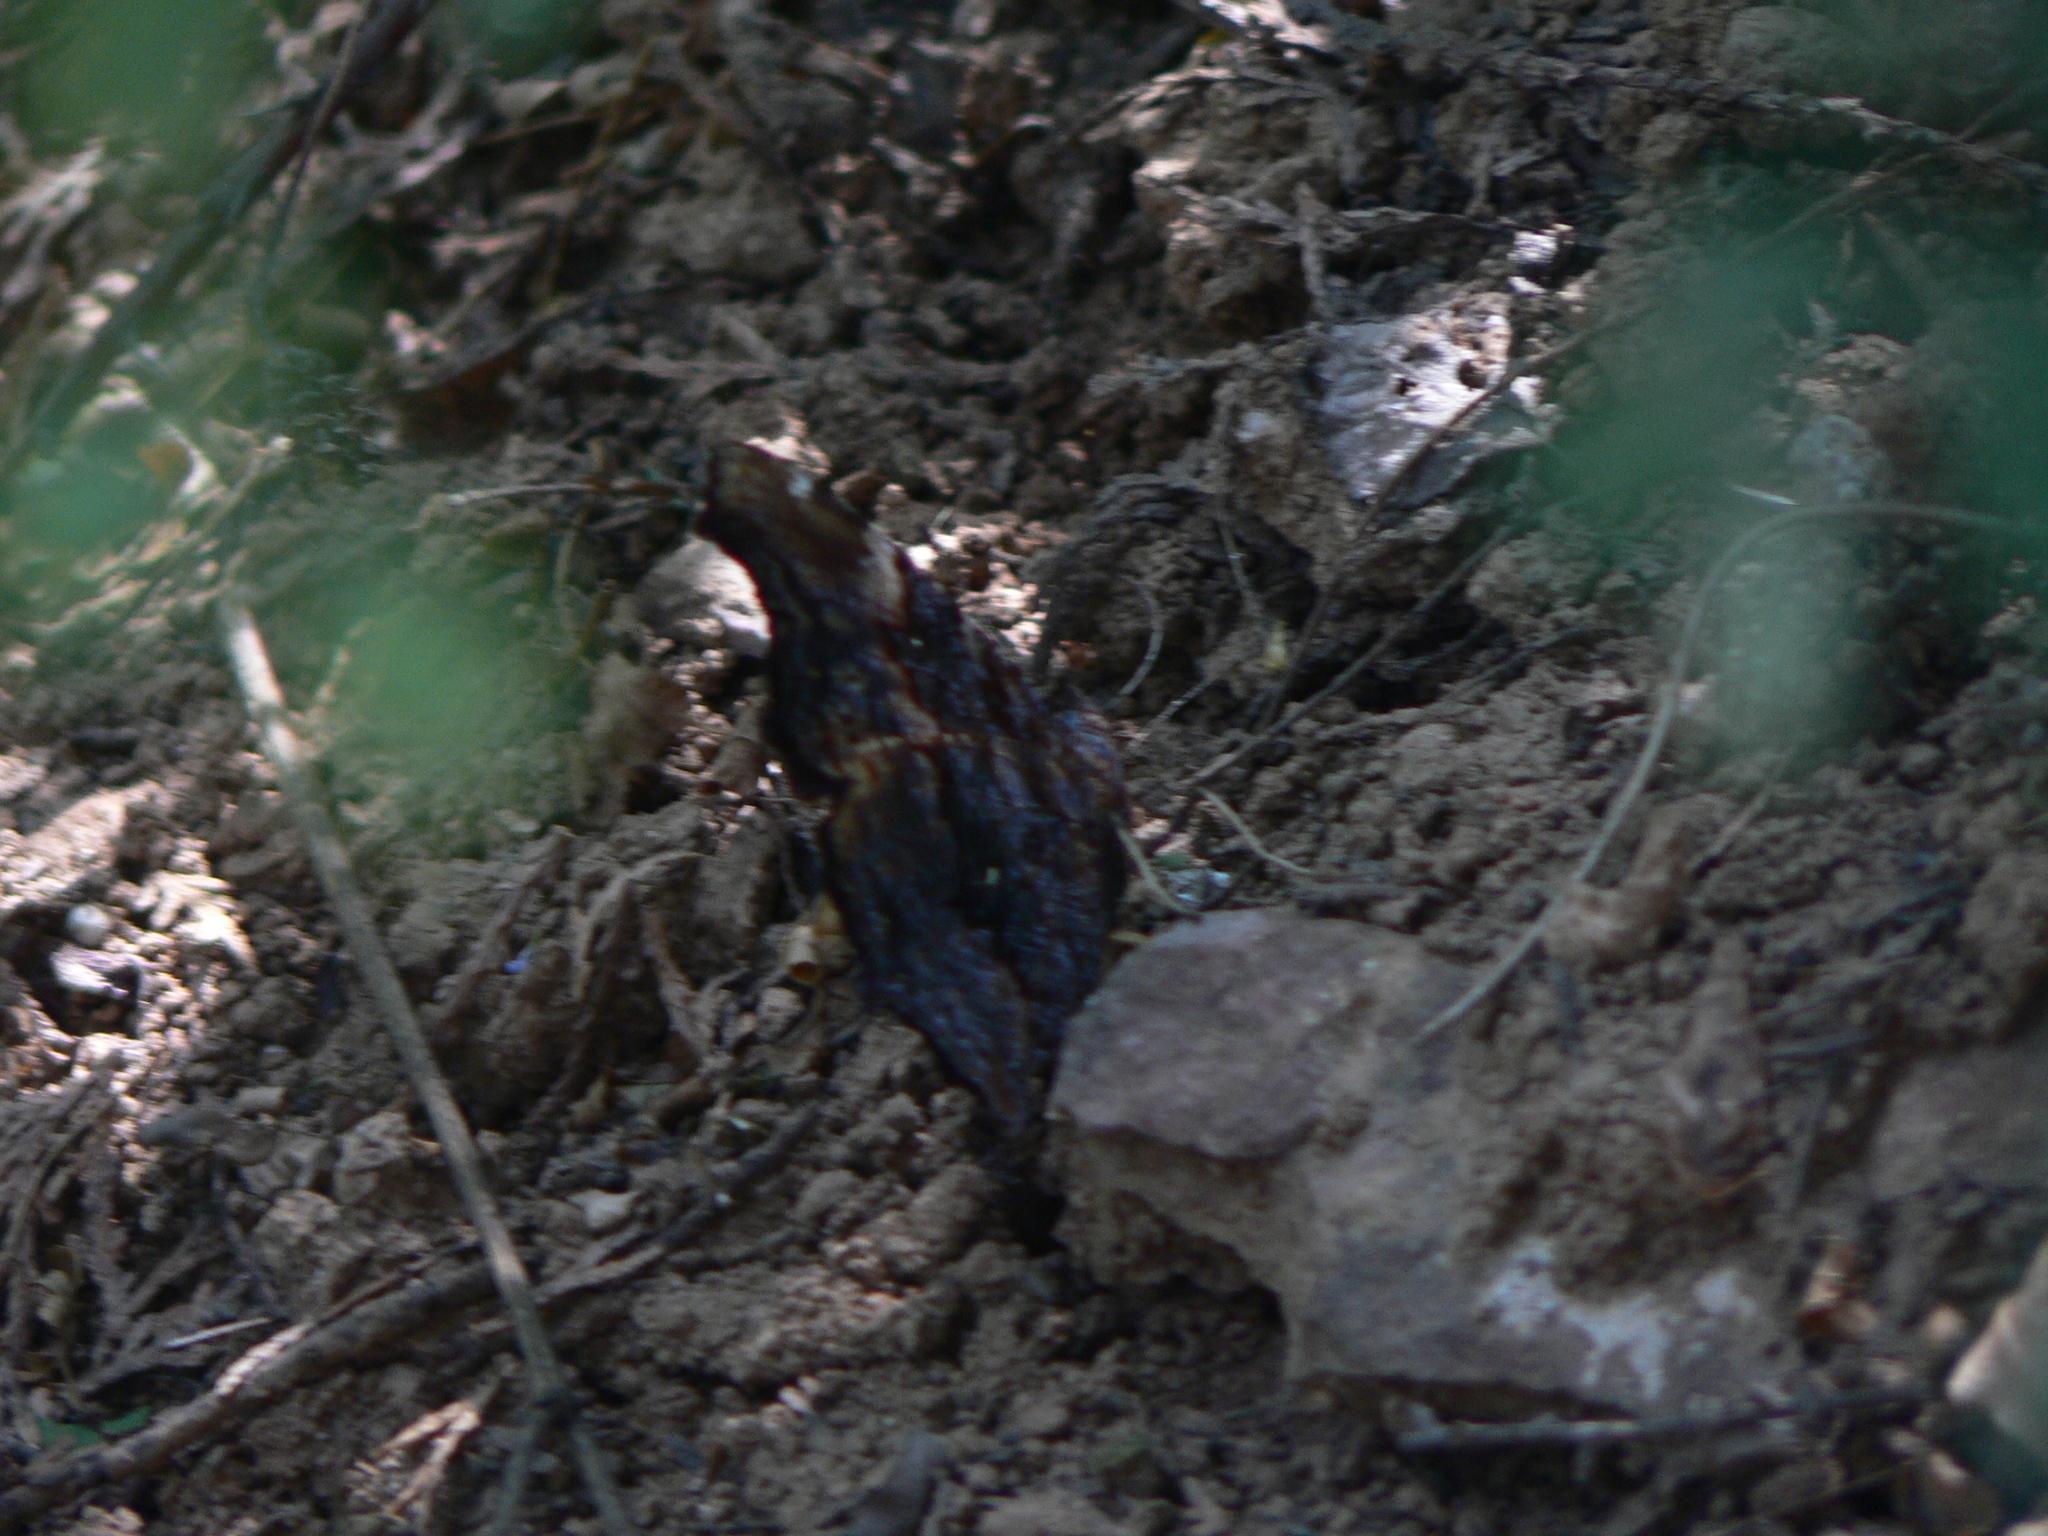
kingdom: Animalia
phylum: Arthropoda
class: Insecta
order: Lepidoptera
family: Nymphalidae
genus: Vanessa
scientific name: Vanessa Kaniska canace
